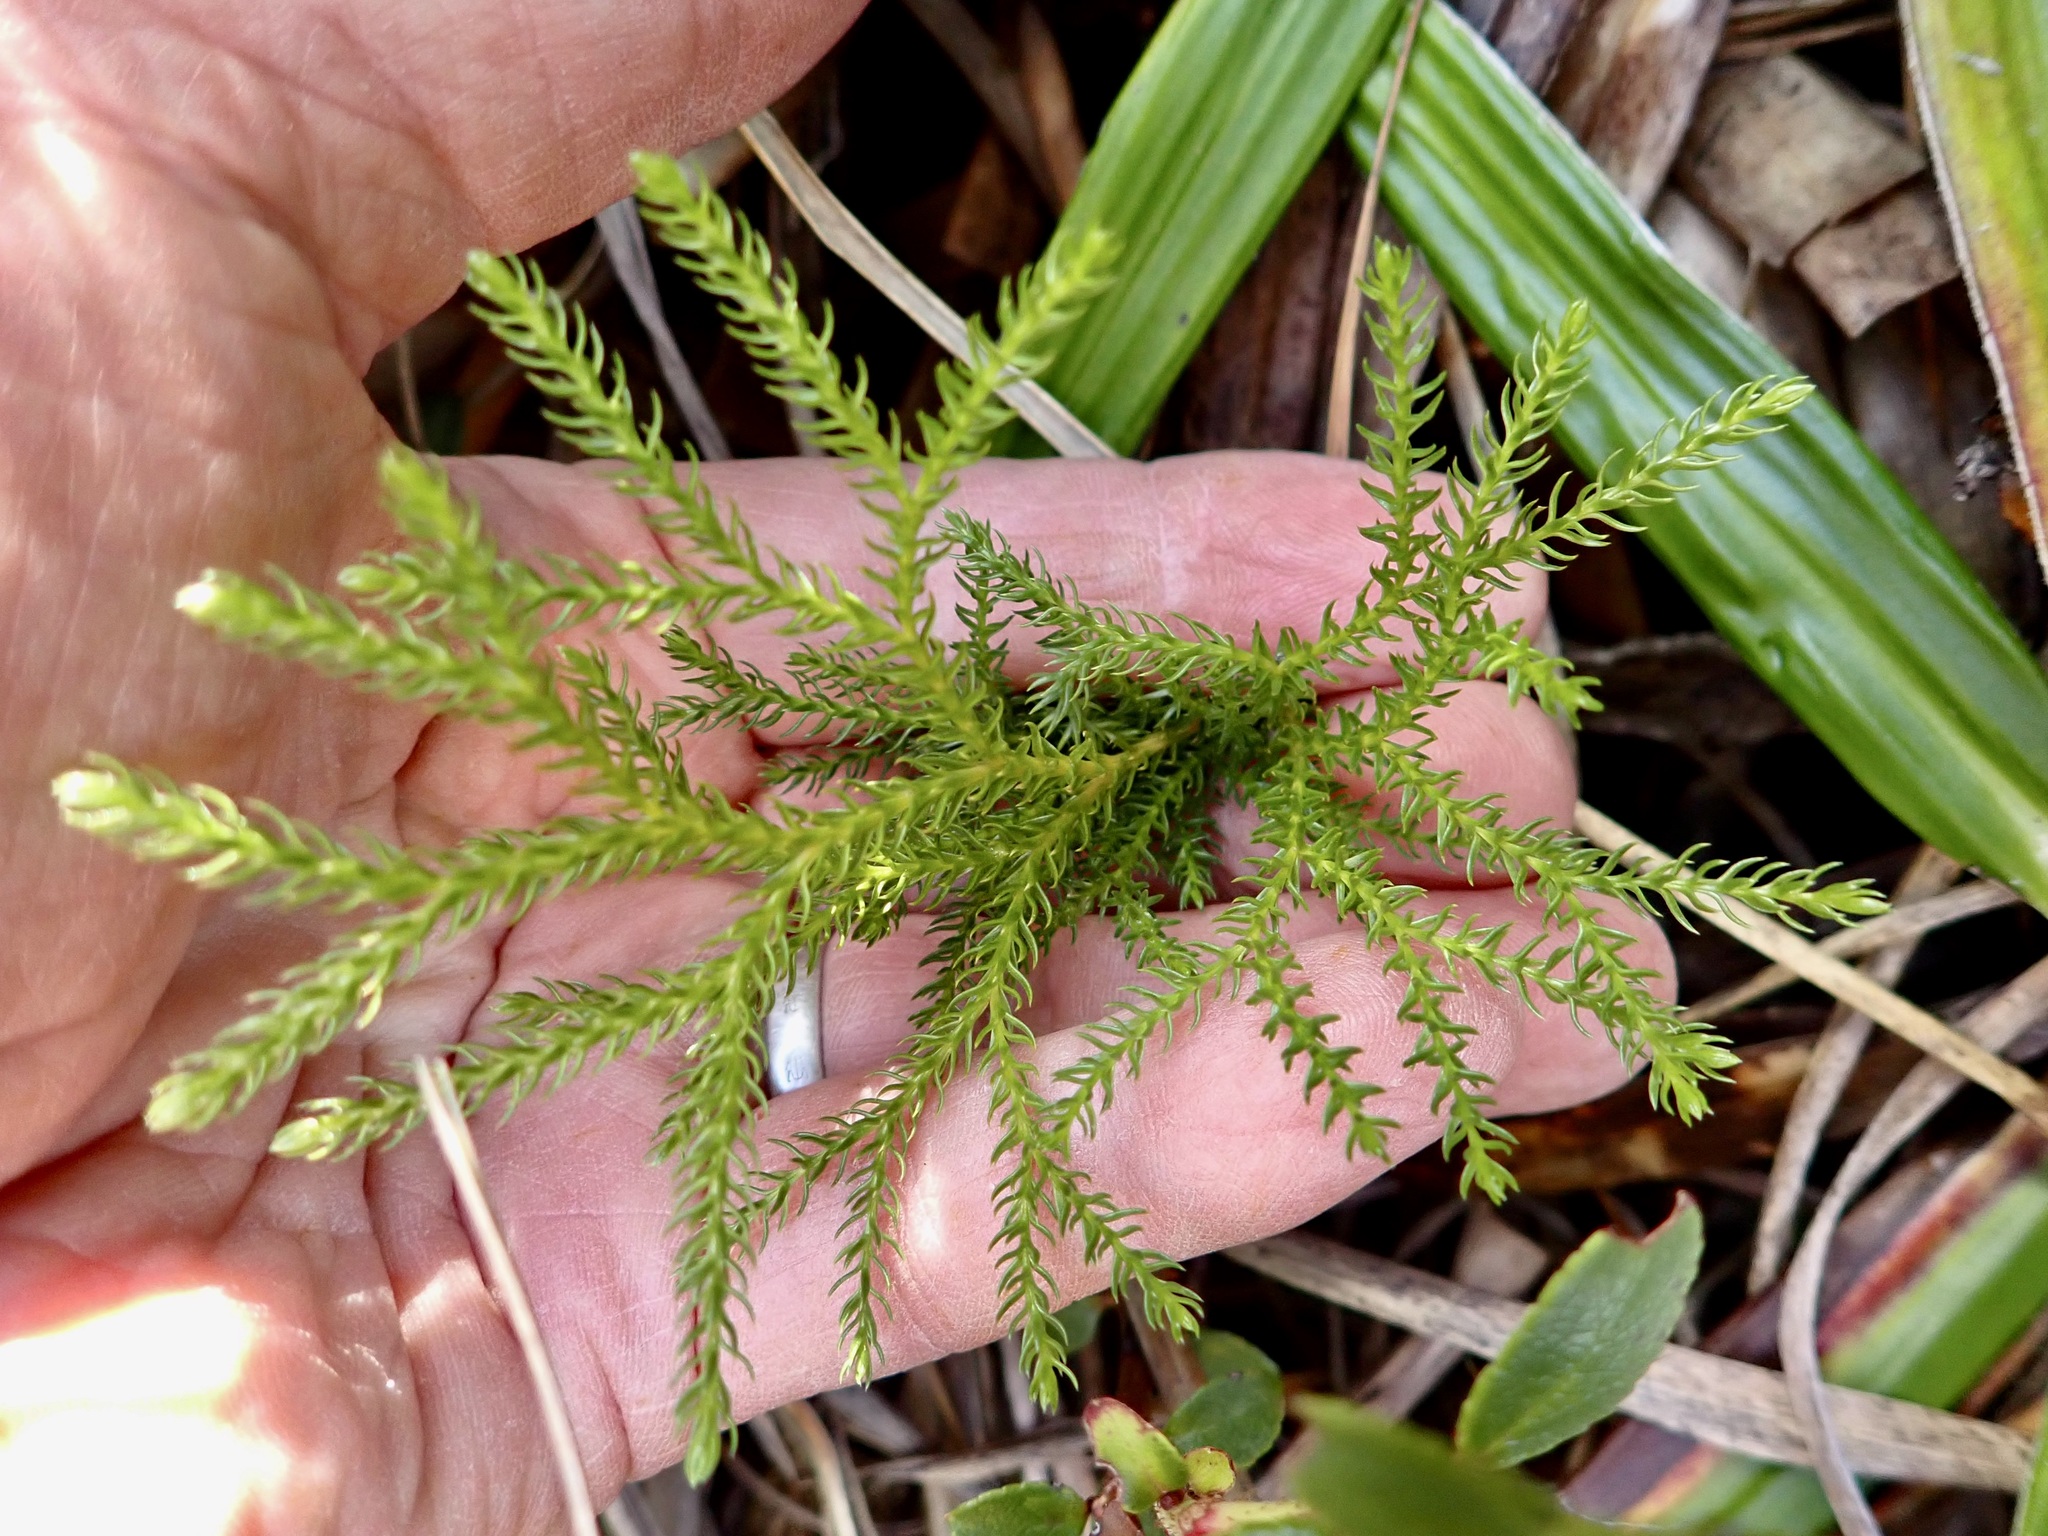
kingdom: Plantae
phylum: Tracheophyta
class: Lycopodiopsida
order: Lycopodiales
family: Lycopodiaceae
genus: Austrolycopodium
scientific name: Austrolycopodium fastigiatum
